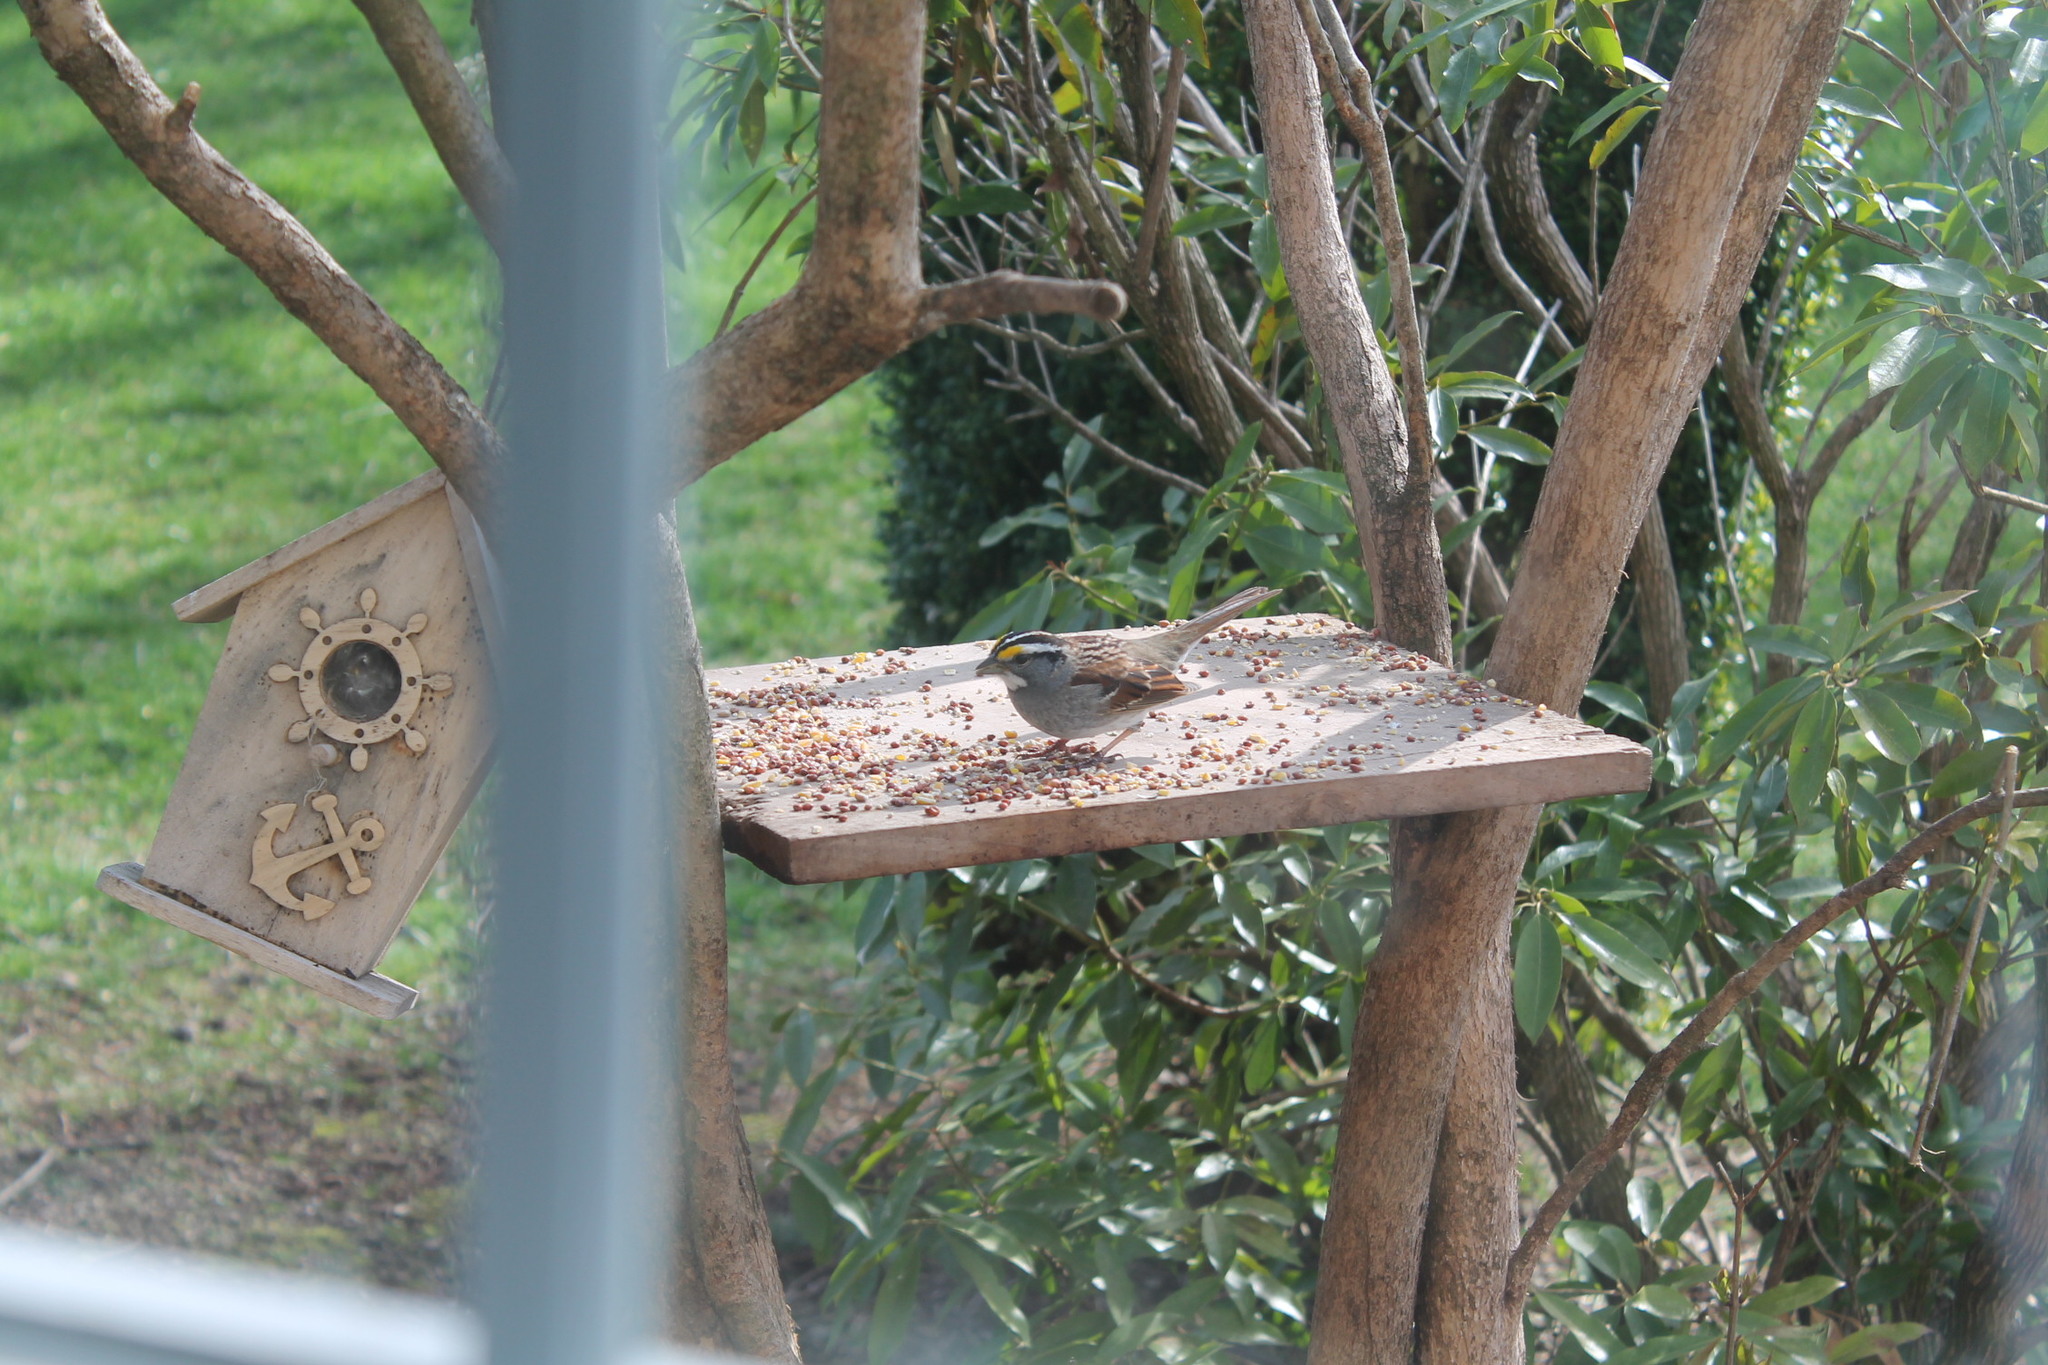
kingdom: Animalia
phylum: Chordata
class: Aves
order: Passeriformes
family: Passerellidae
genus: Zonotrichia
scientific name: Zonotrichia albicollis
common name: White-throated sparrow
